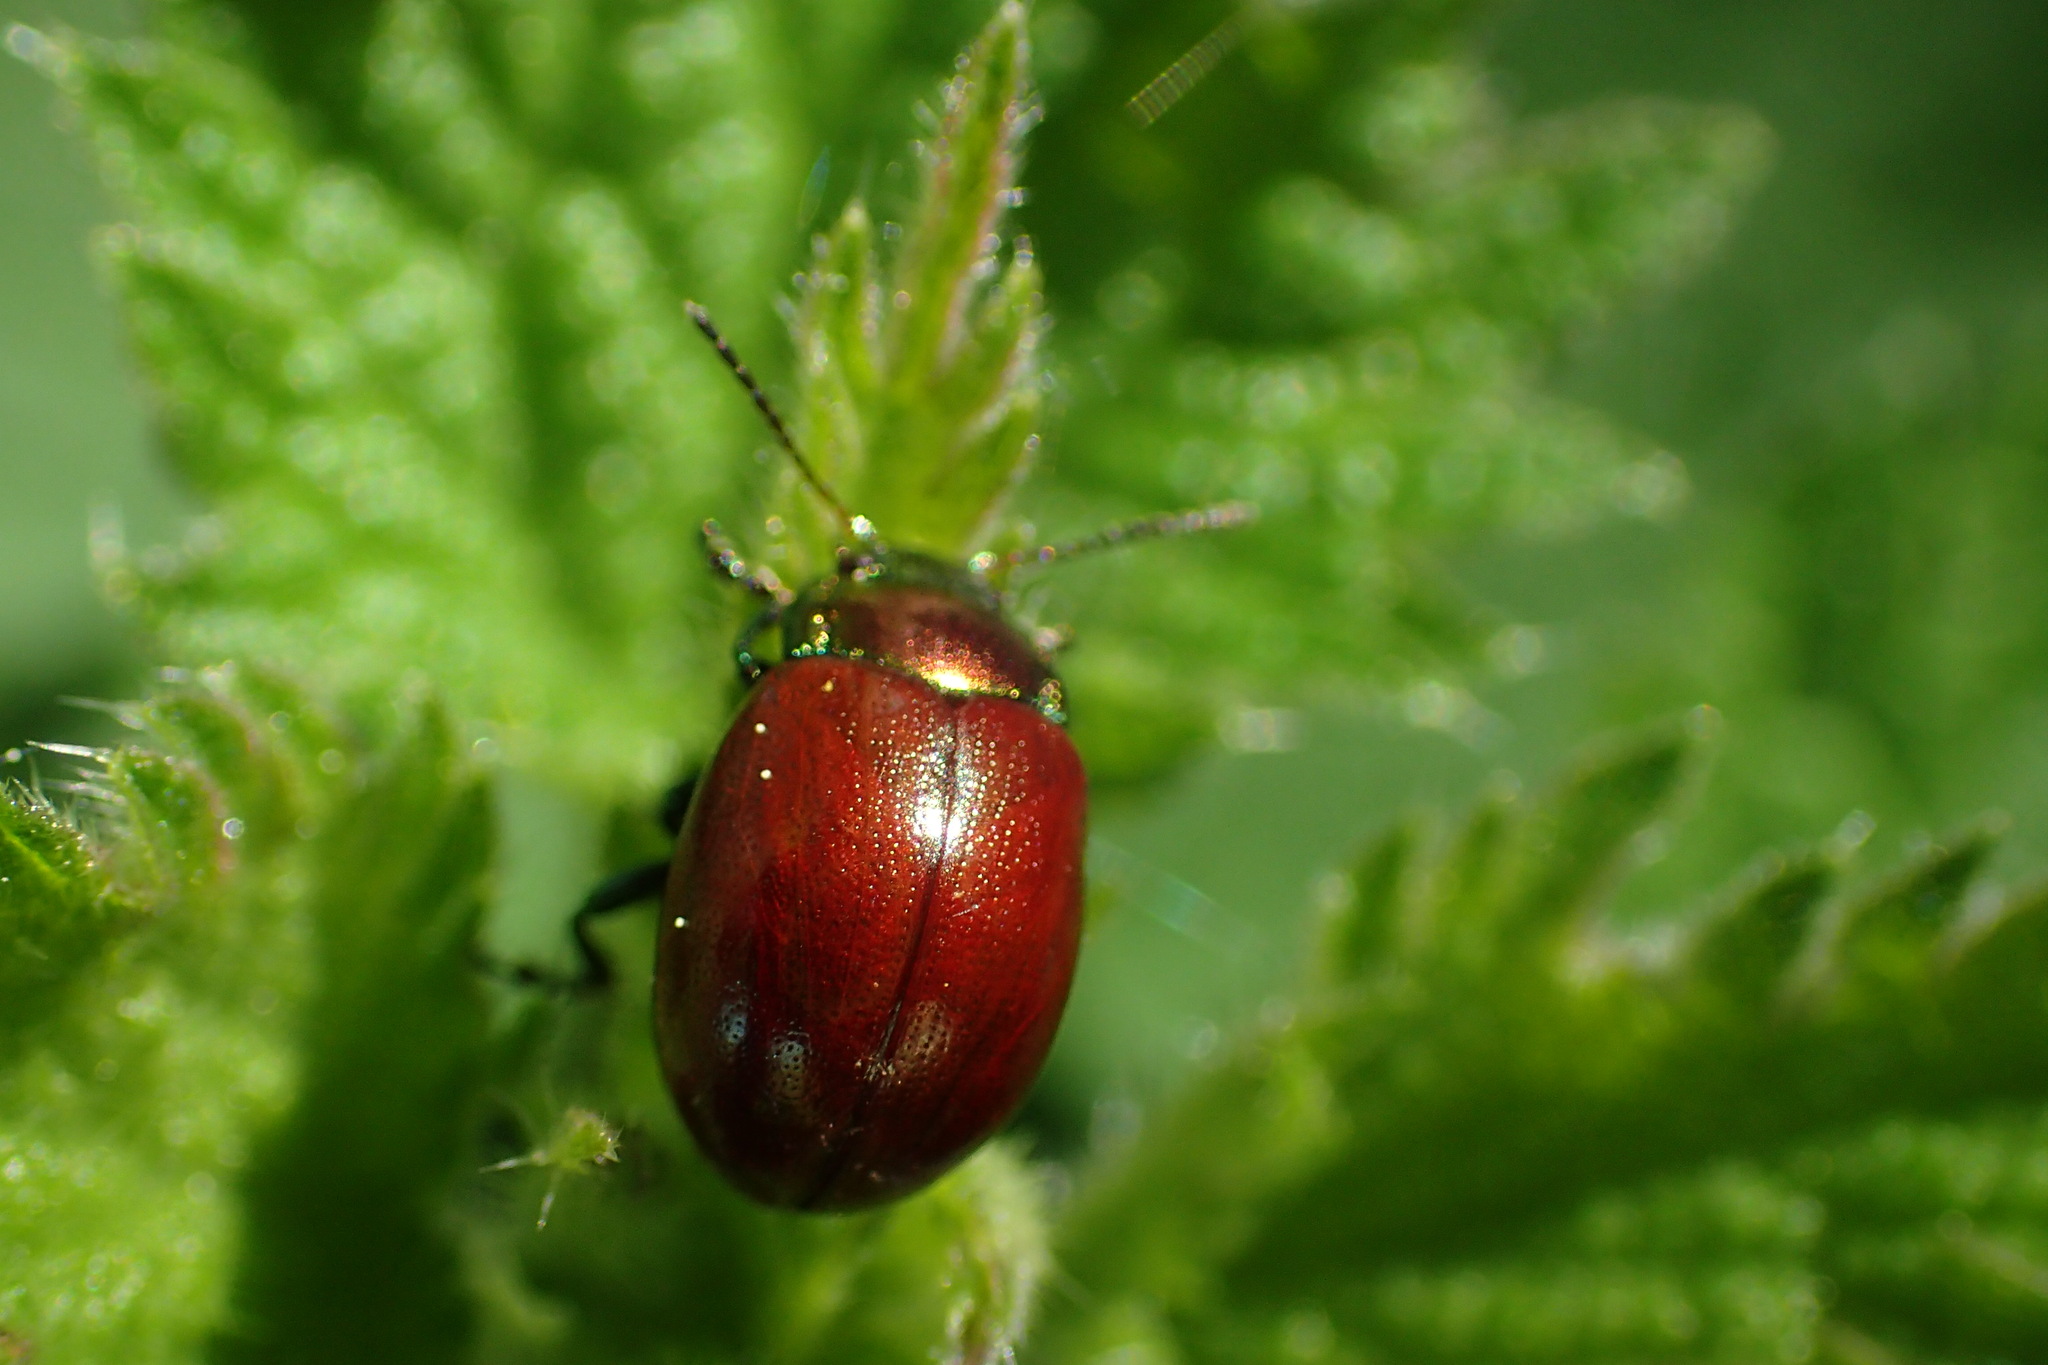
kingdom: Animalia
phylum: Arthropoda
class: Insecta
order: Coleoptera
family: Chrysomelidae
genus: Chrysomela
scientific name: Chrysomela polita
